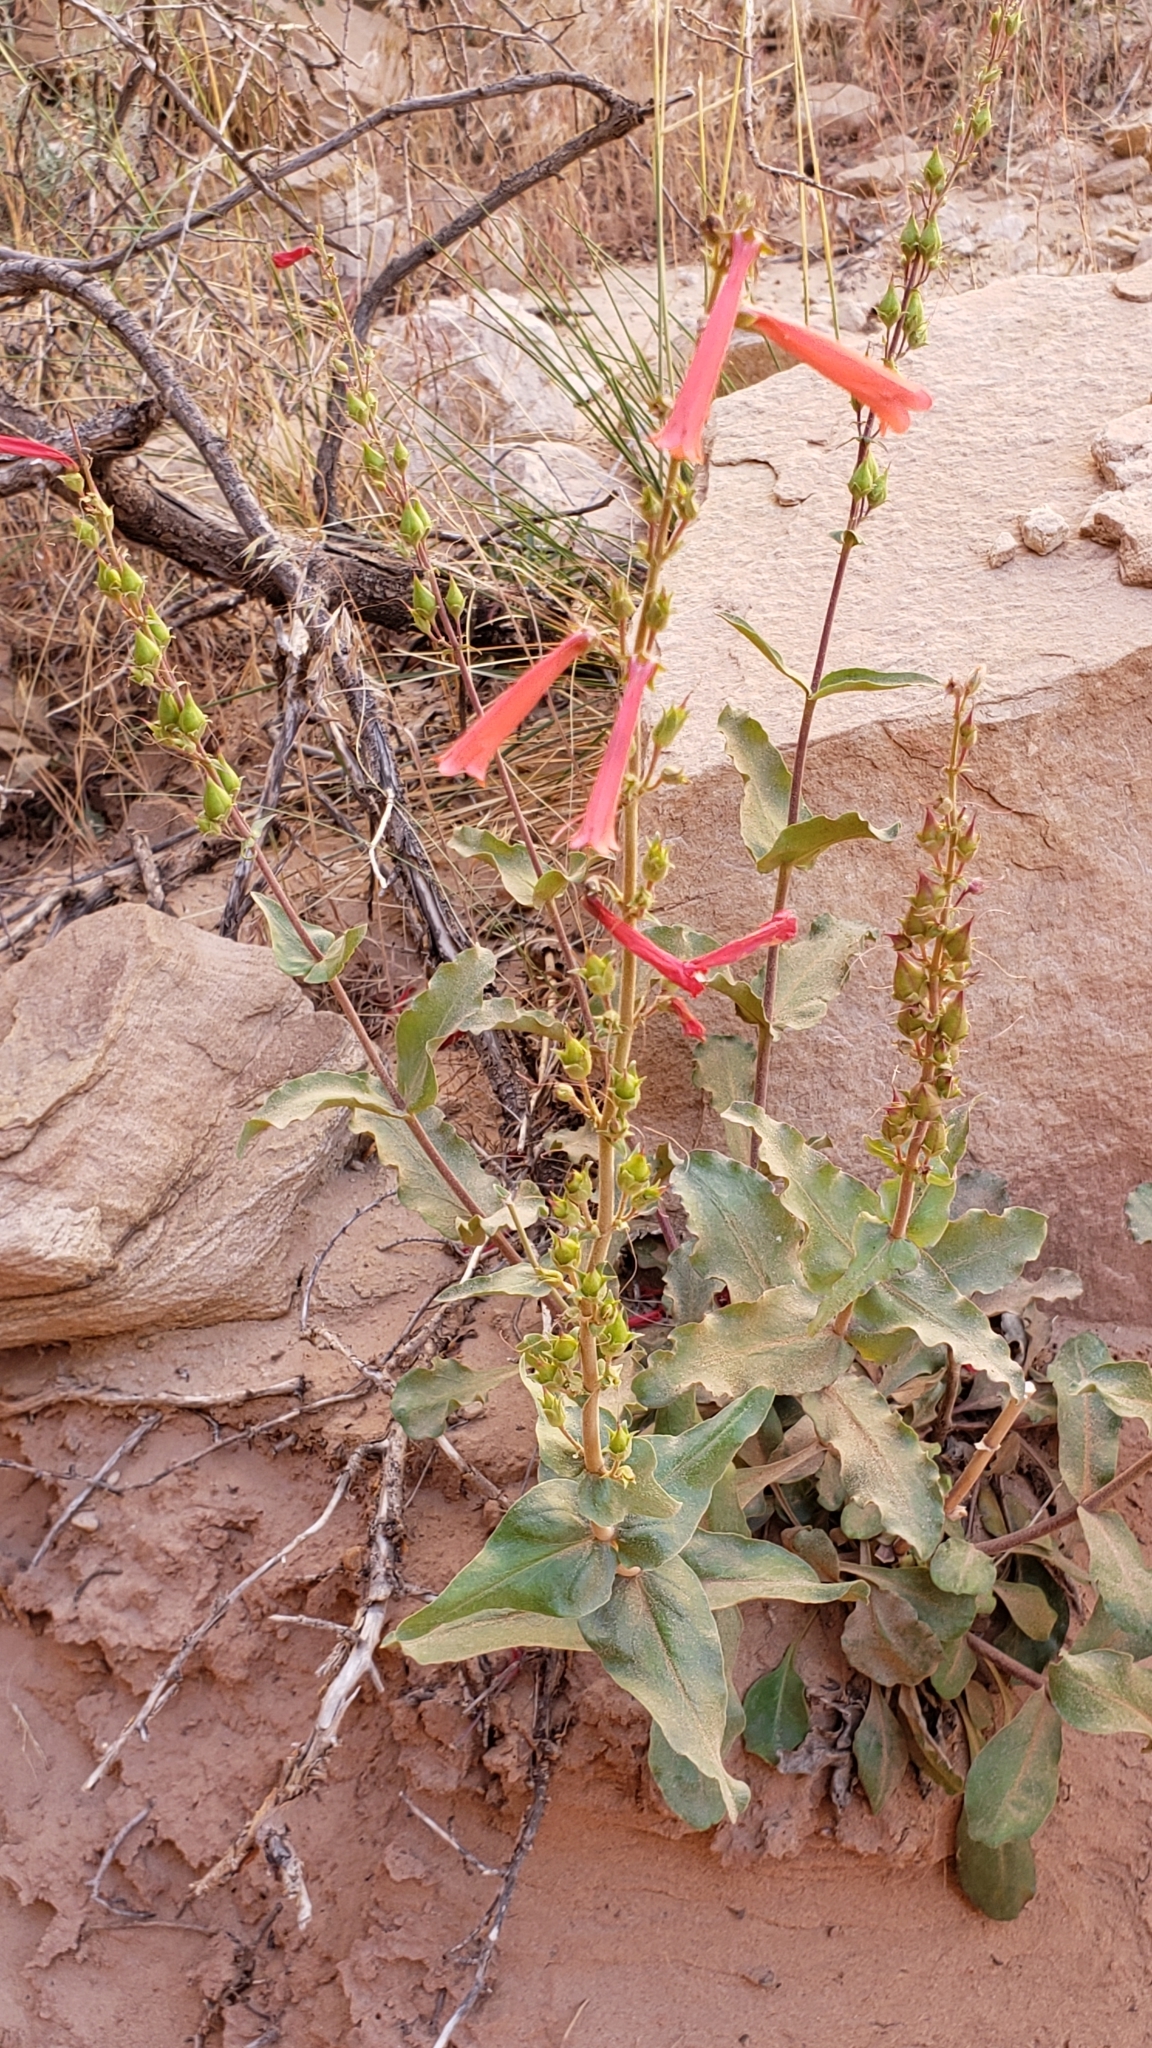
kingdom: Plantae
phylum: Tracheophyta
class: Magnoliopsida
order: Lamiales
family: Plantaginaceae
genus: Penstemon
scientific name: Penstemon eatonii
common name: Eaton's penstemon
